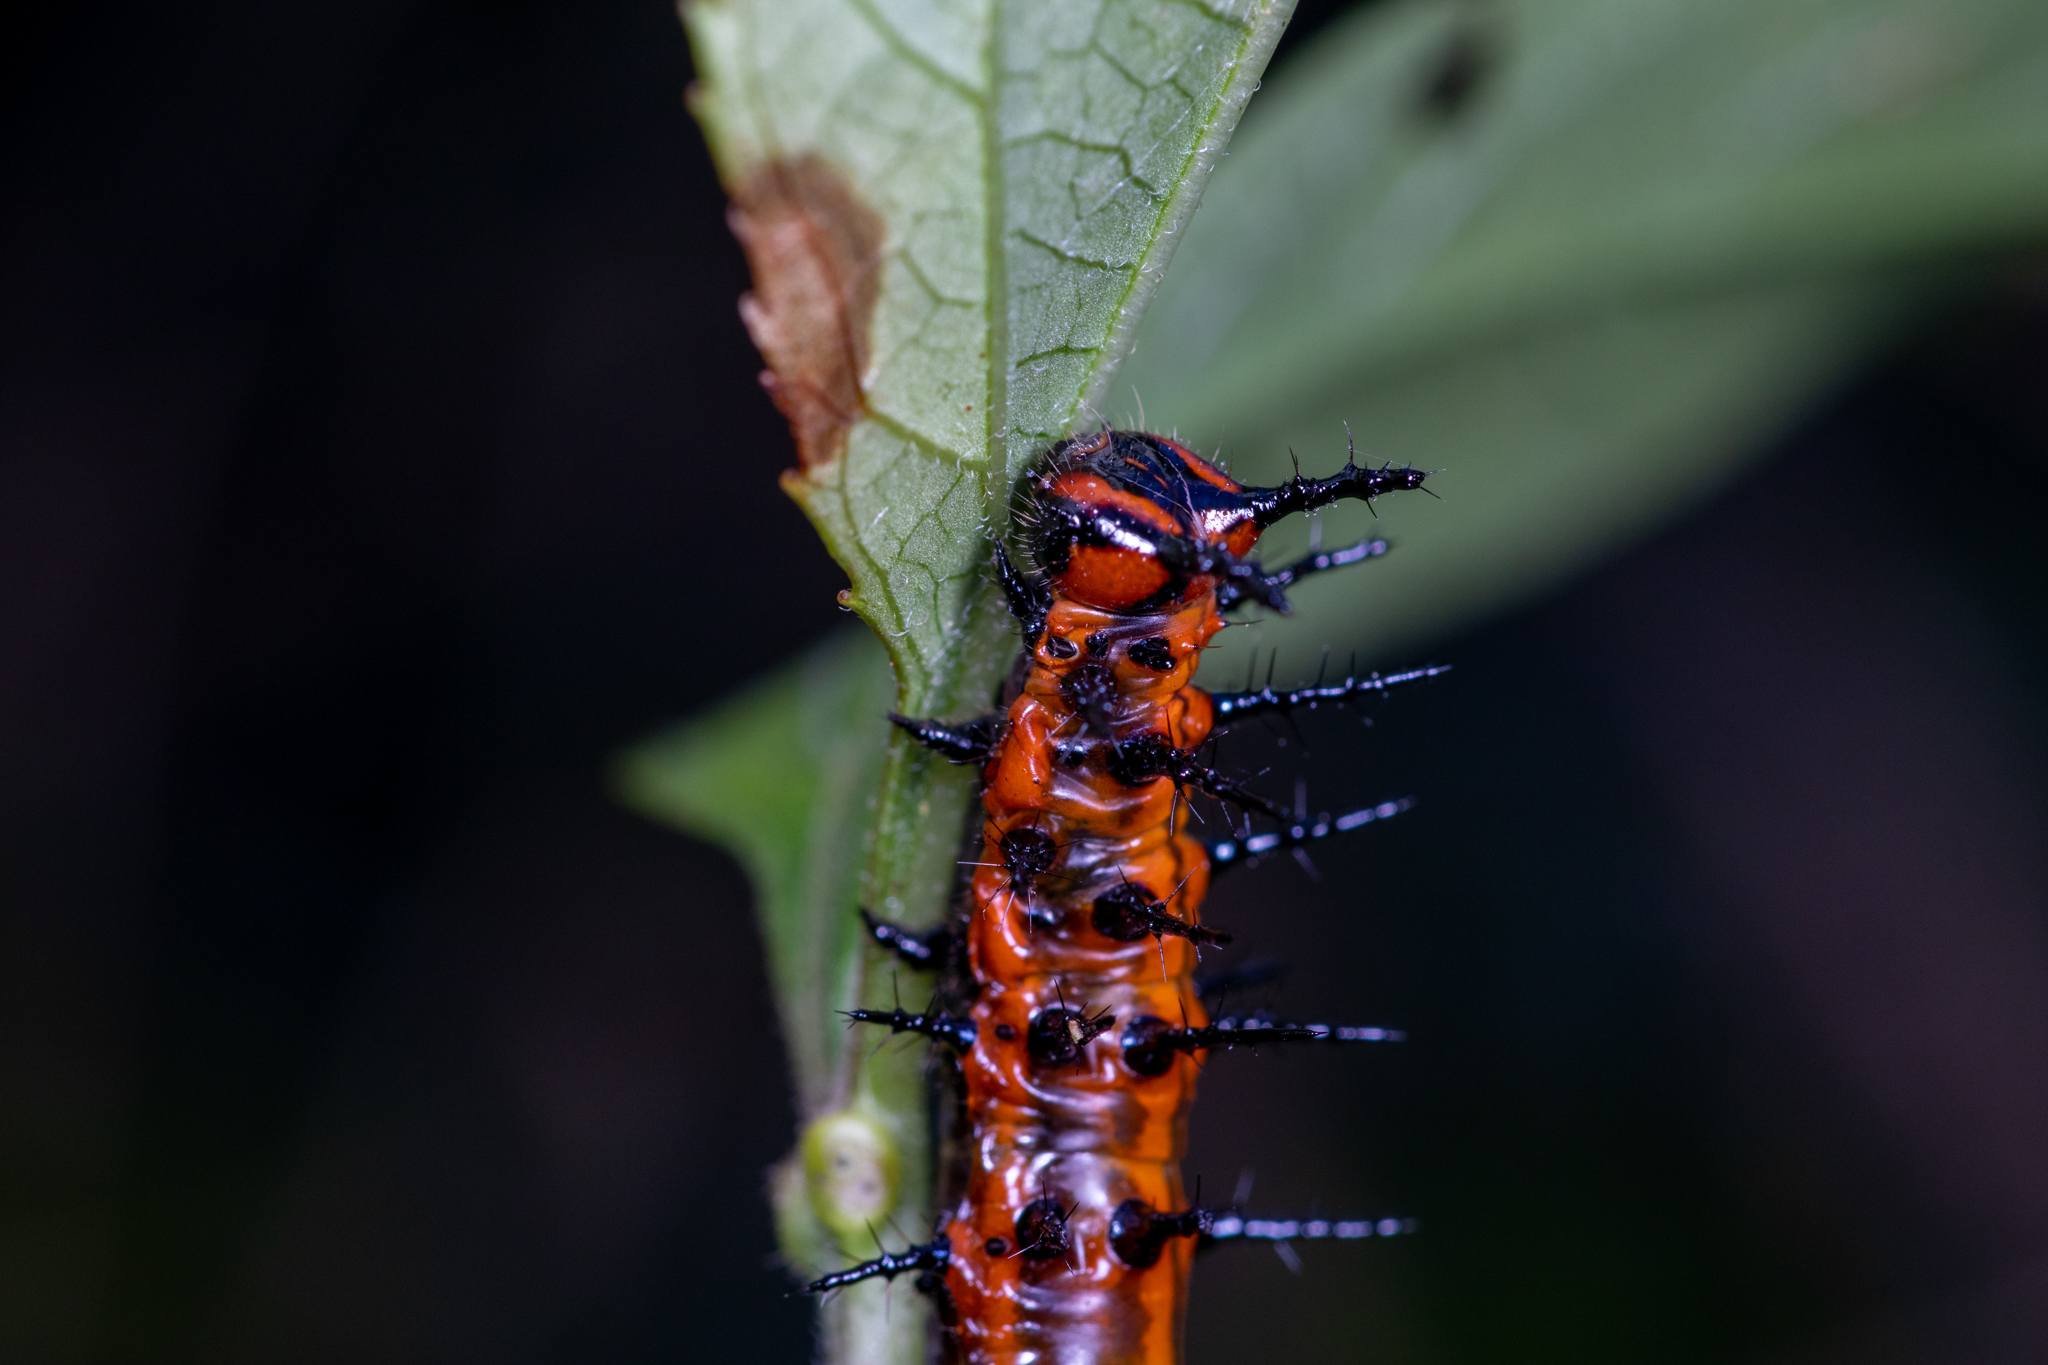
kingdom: Animalia
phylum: Arthropoda
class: Insecta
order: Lepidoptera
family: Nymphalidae
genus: Dione
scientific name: Dione vanillae
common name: Gulf fritillary
